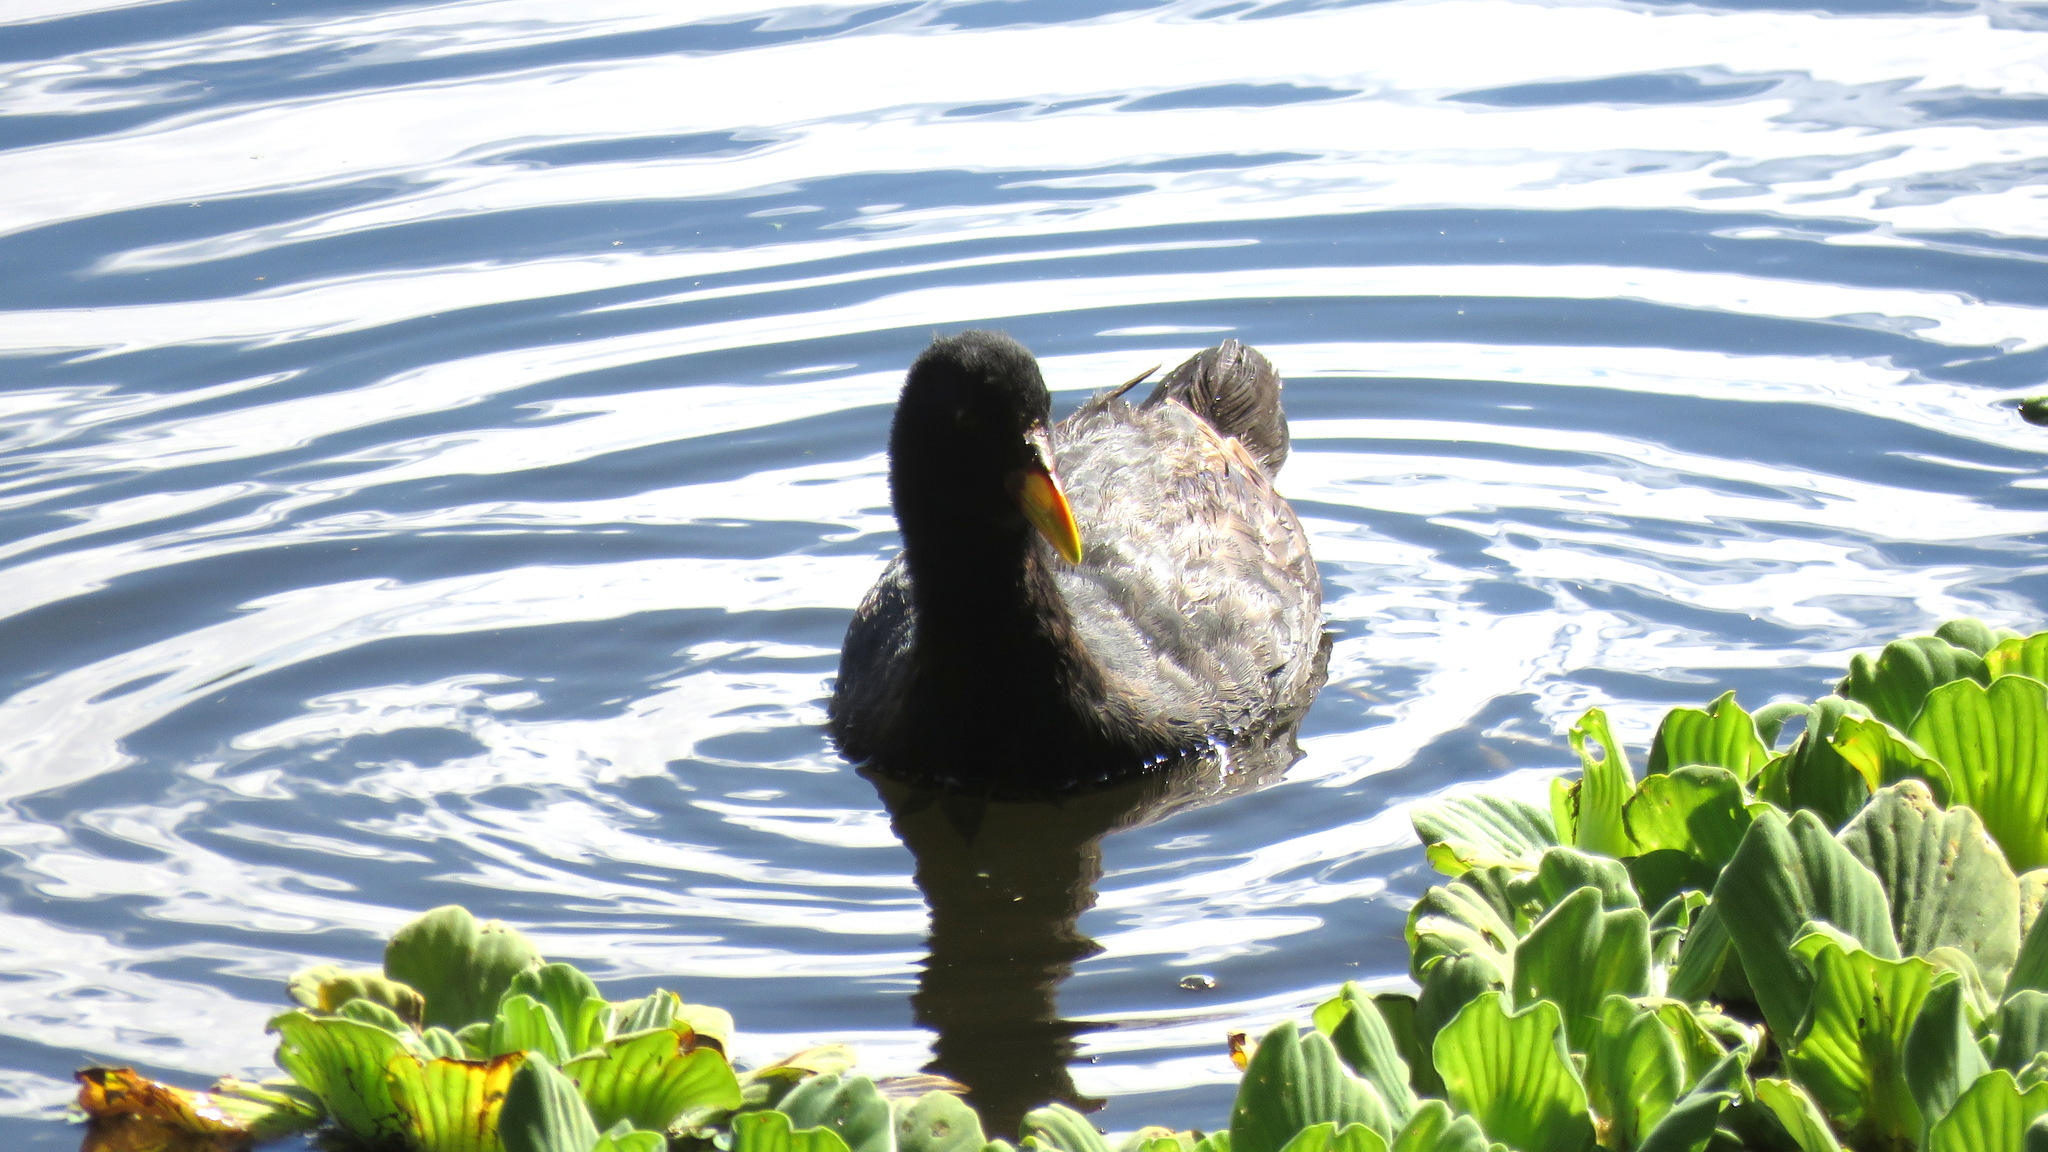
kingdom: Animalia
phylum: Chordata
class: Aves
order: Gruiformes
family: Rallidae
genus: Fulica
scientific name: Fulica rufifrons
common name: Red-fronted coot
